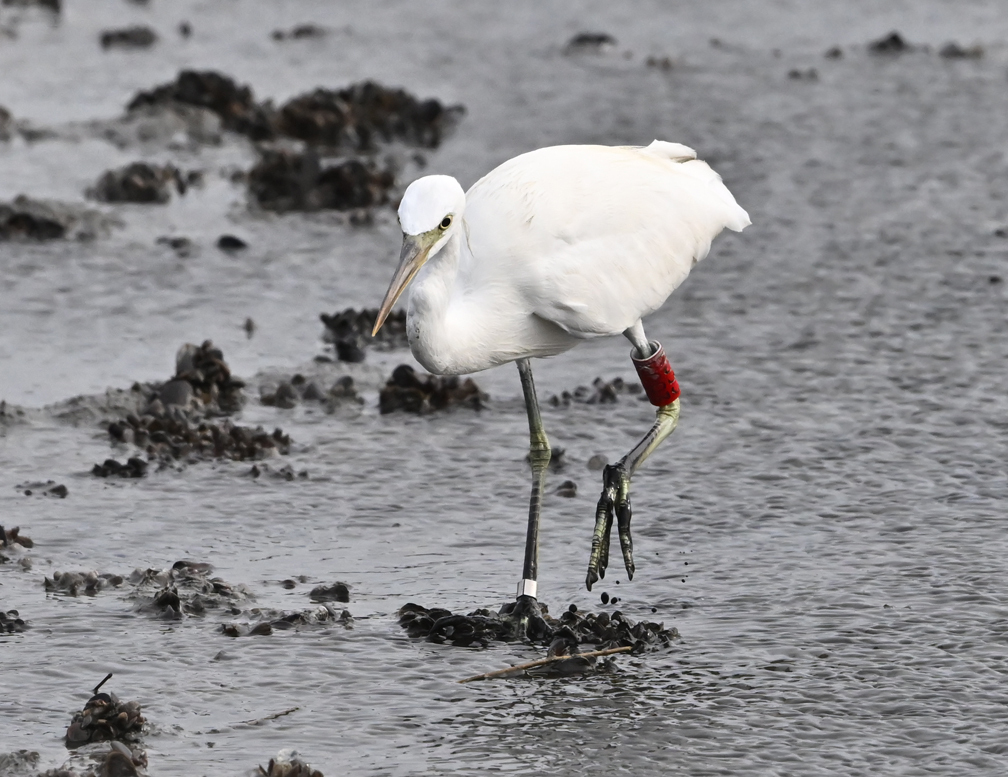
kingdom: Animalia
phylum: Chordata
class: Aves
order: Pelecaniformes
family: Ardeidae
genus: Egretta
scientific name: Egretta eulophotes
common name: Chinese egret
